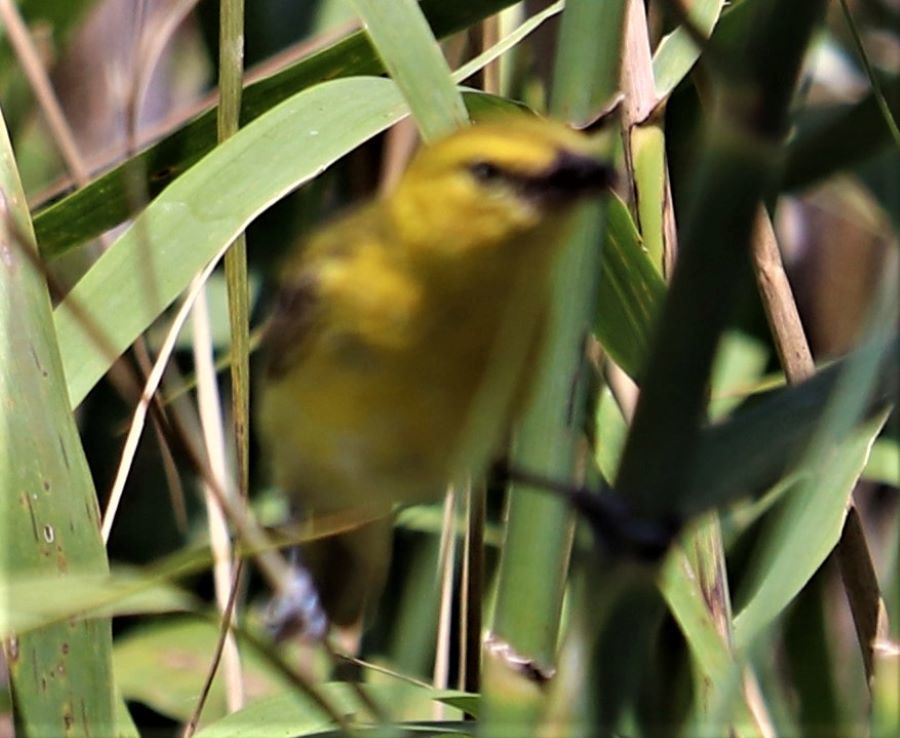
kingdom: Animalia
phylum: Chordata
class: Aves
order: Passeriformes
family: Ploceidae
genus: Ploceus
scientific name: Ploceus intermedius
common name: Lesser masked weaver
